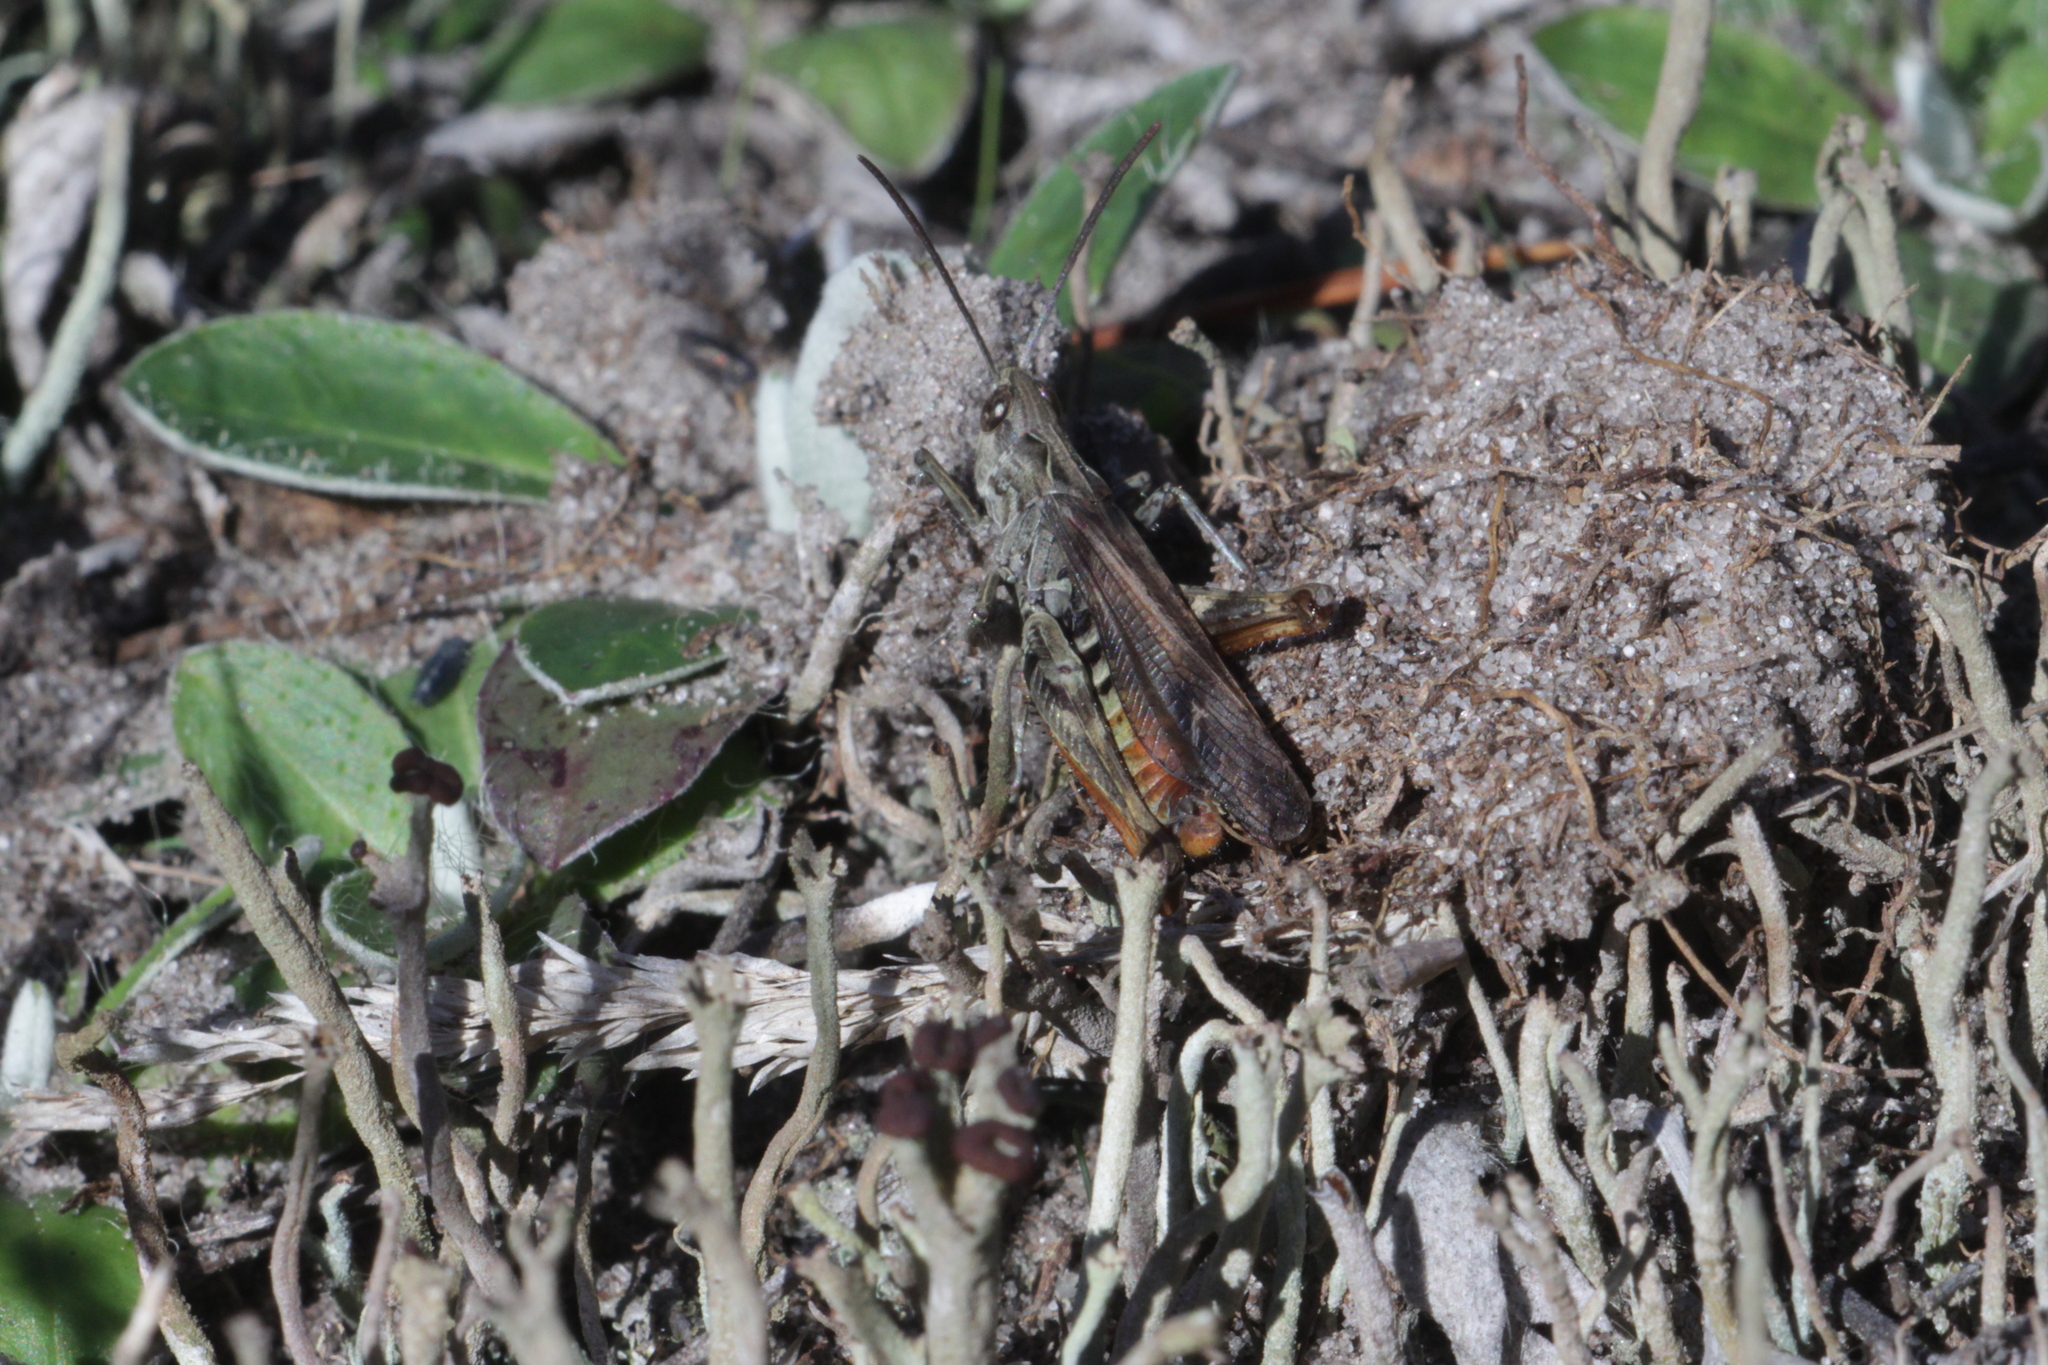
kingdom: Animalia
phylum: Arthropoda
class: Insecta
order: Orthoptera
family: Acrididae
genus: Chorthippus
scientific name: Chorthippus biguttulus
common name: Bow-winged grasshopper
